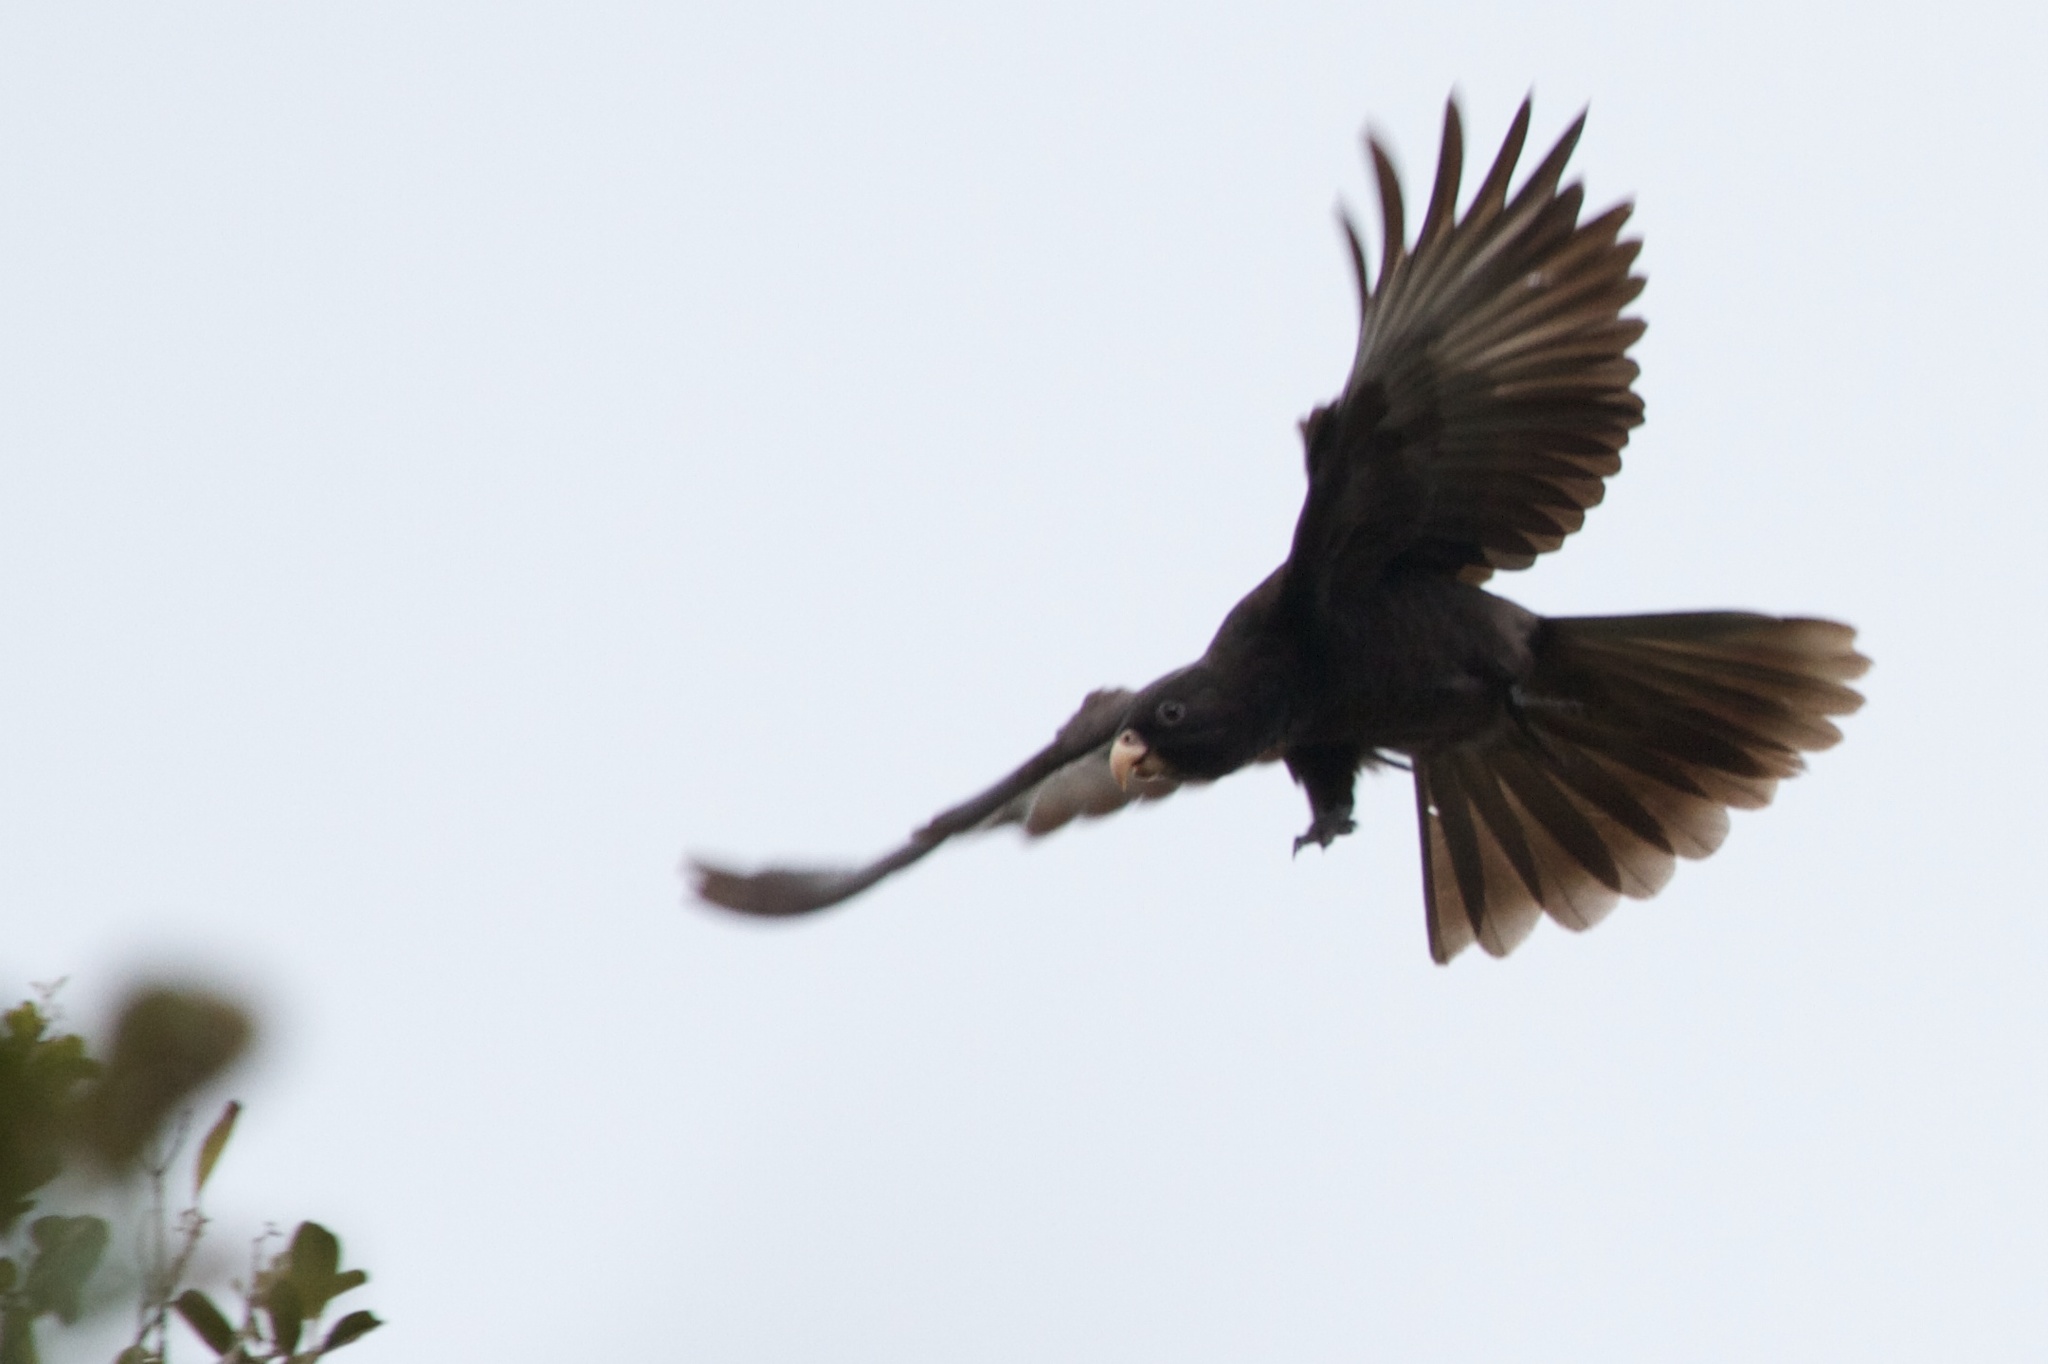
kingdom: Animalia
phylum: Chordata
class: Aves
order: Psittaciformes
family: Psittacidae
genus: Coracopsis
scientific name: Coracopsis nigra
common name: Lesser vasa parrot
